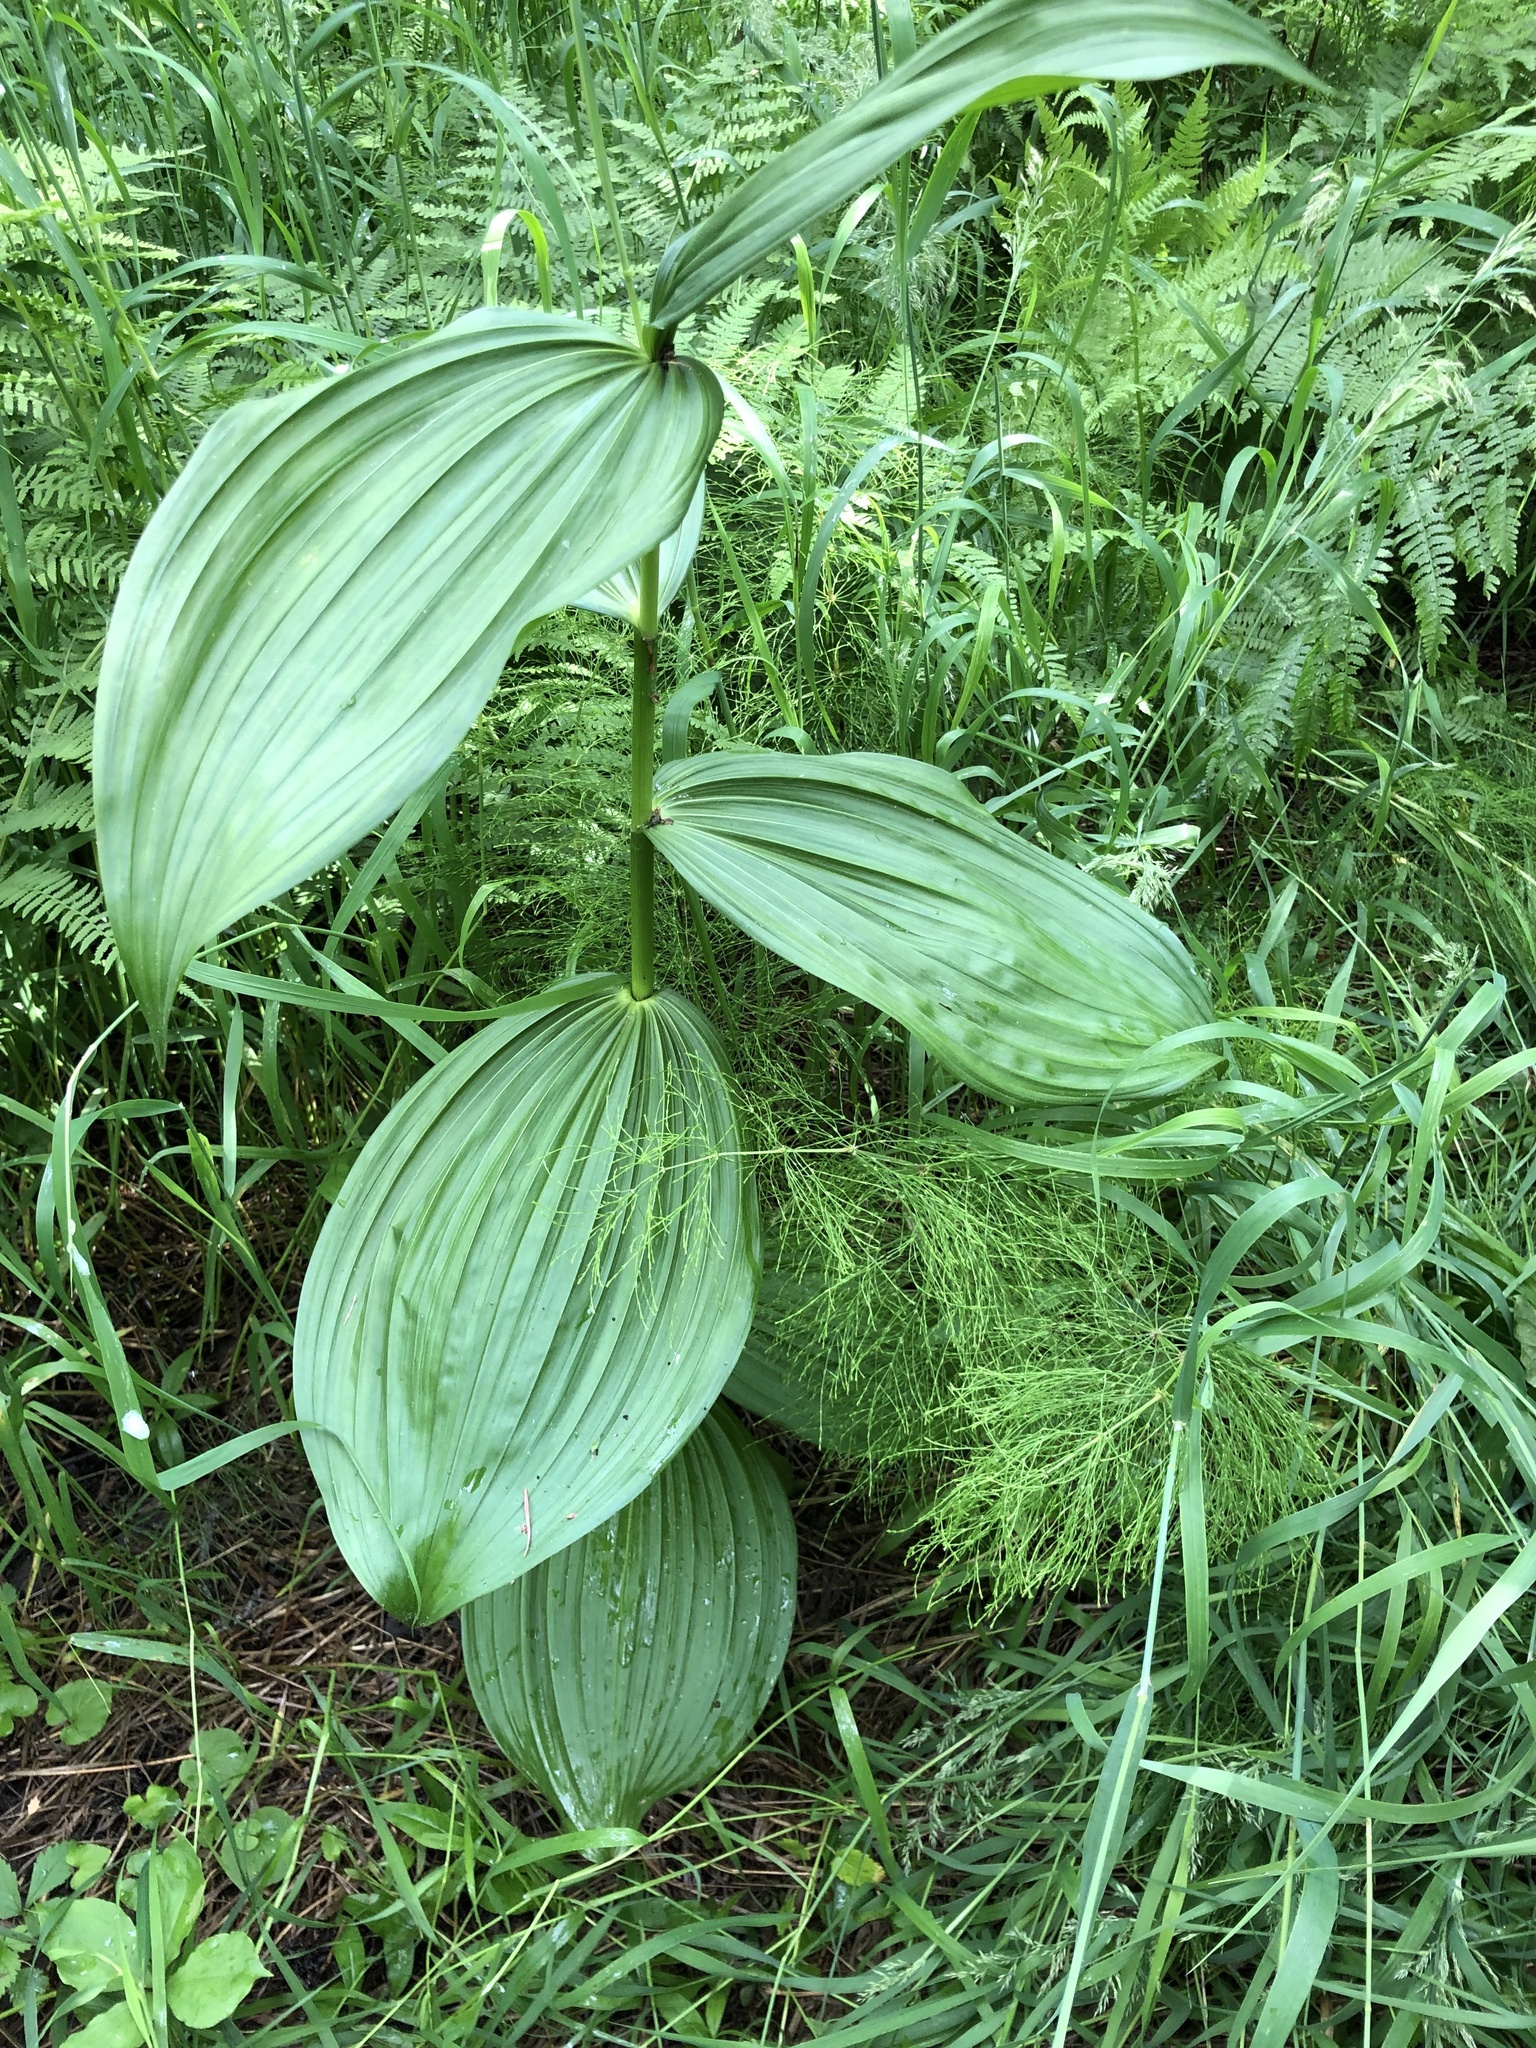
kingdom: Plantae
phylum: Tracheophyta
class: Liliopsida
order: Liliales
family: Melanthiaceae
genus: Veratrum
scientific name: Veratrum lobelianum
